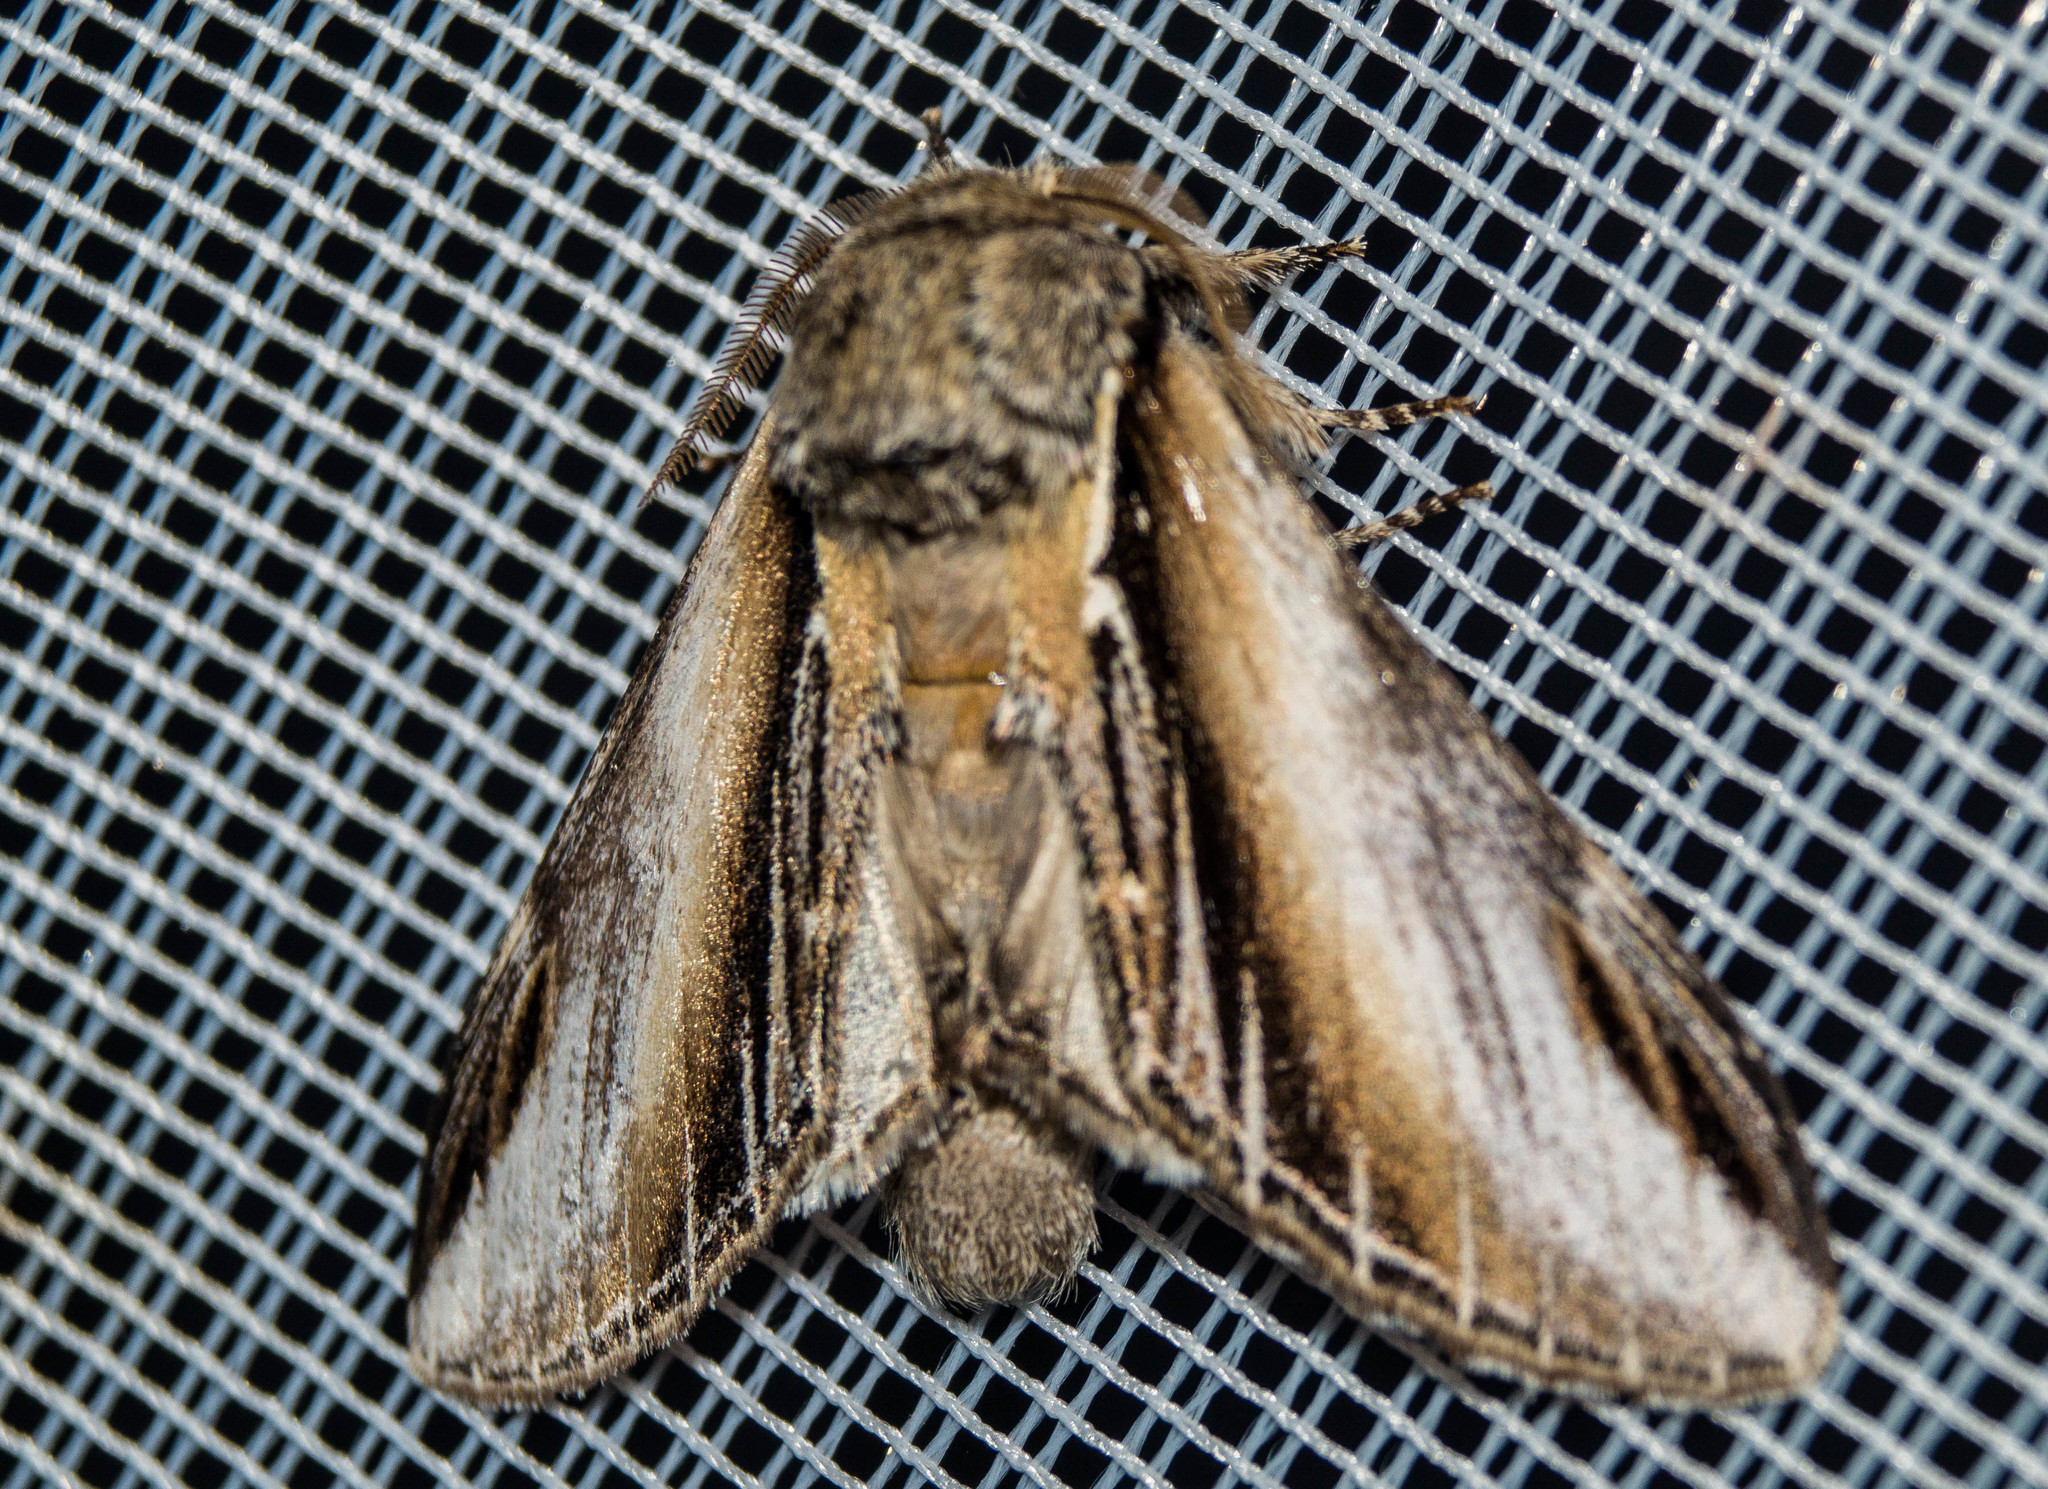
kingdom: Animalia
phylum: Arthropoda
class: Insecta
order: Lepidoptera
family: Notodontidae
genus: Pheosia
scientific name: Pheosia tremula
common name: Swallow prominent
